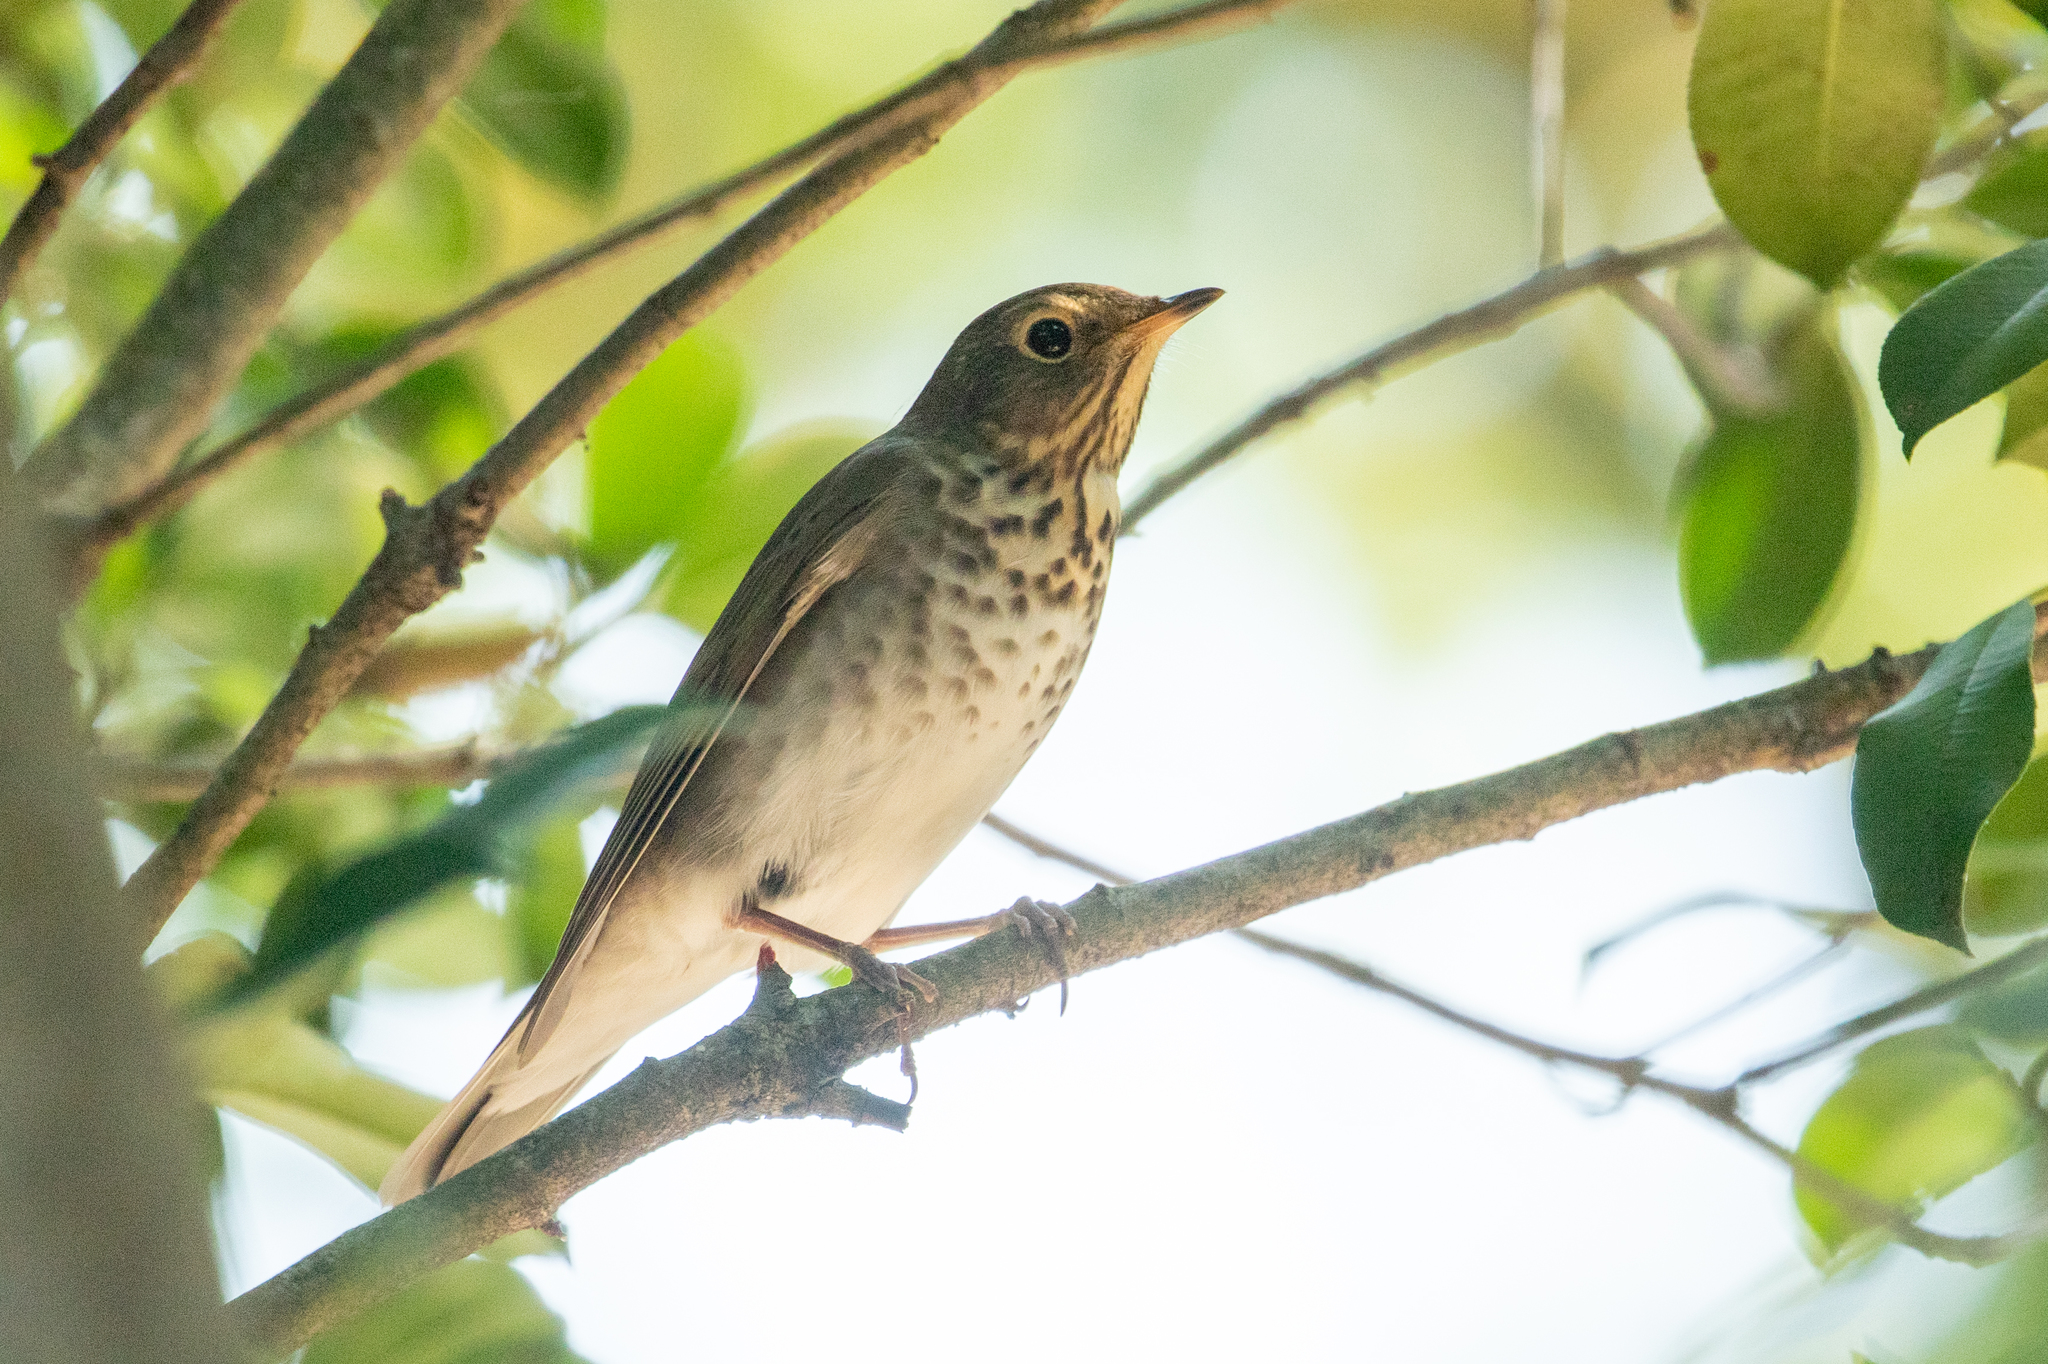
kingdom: Animalia
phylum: Chordata
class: Aves
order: Passeriformes
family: Turdidae
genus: Catharus
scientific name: Catharus ustulatus
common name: Swainson's thrush
